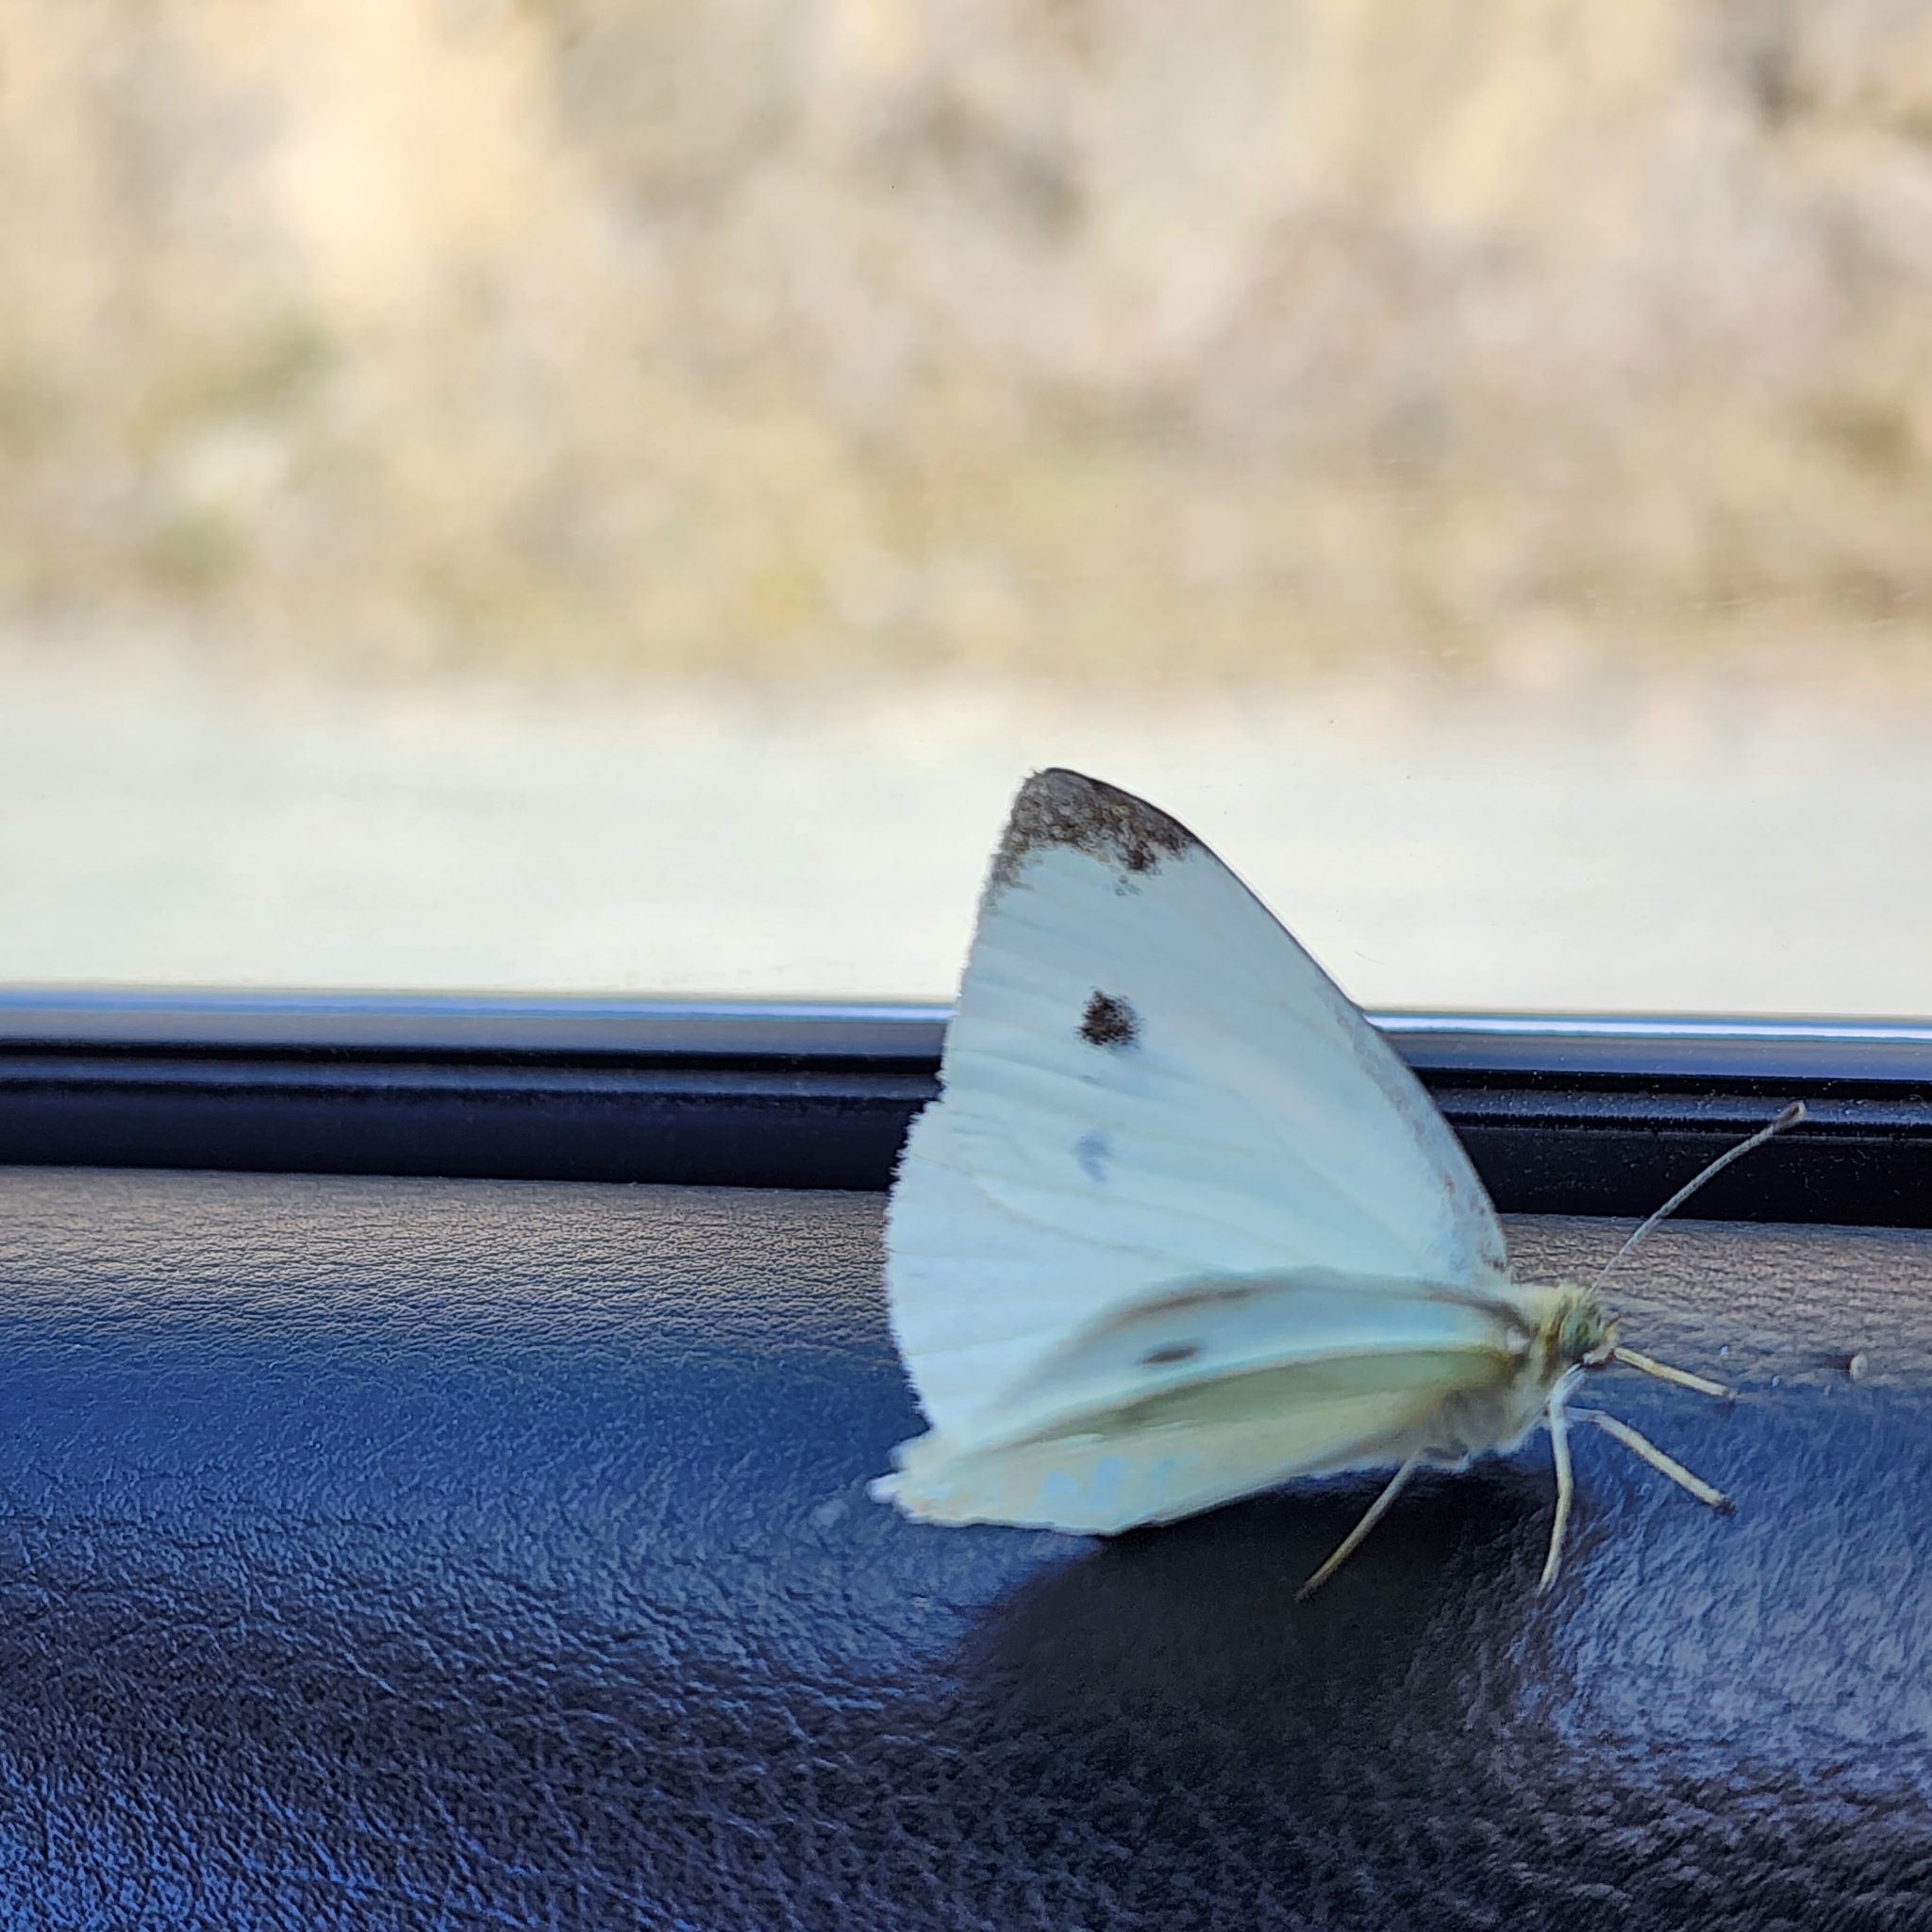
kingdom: Animalia
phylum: Arthropoda
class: Insecta
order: Lepidoptera
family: Pieridae
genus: Pieris
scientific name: Pieris rapae
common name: Small white
